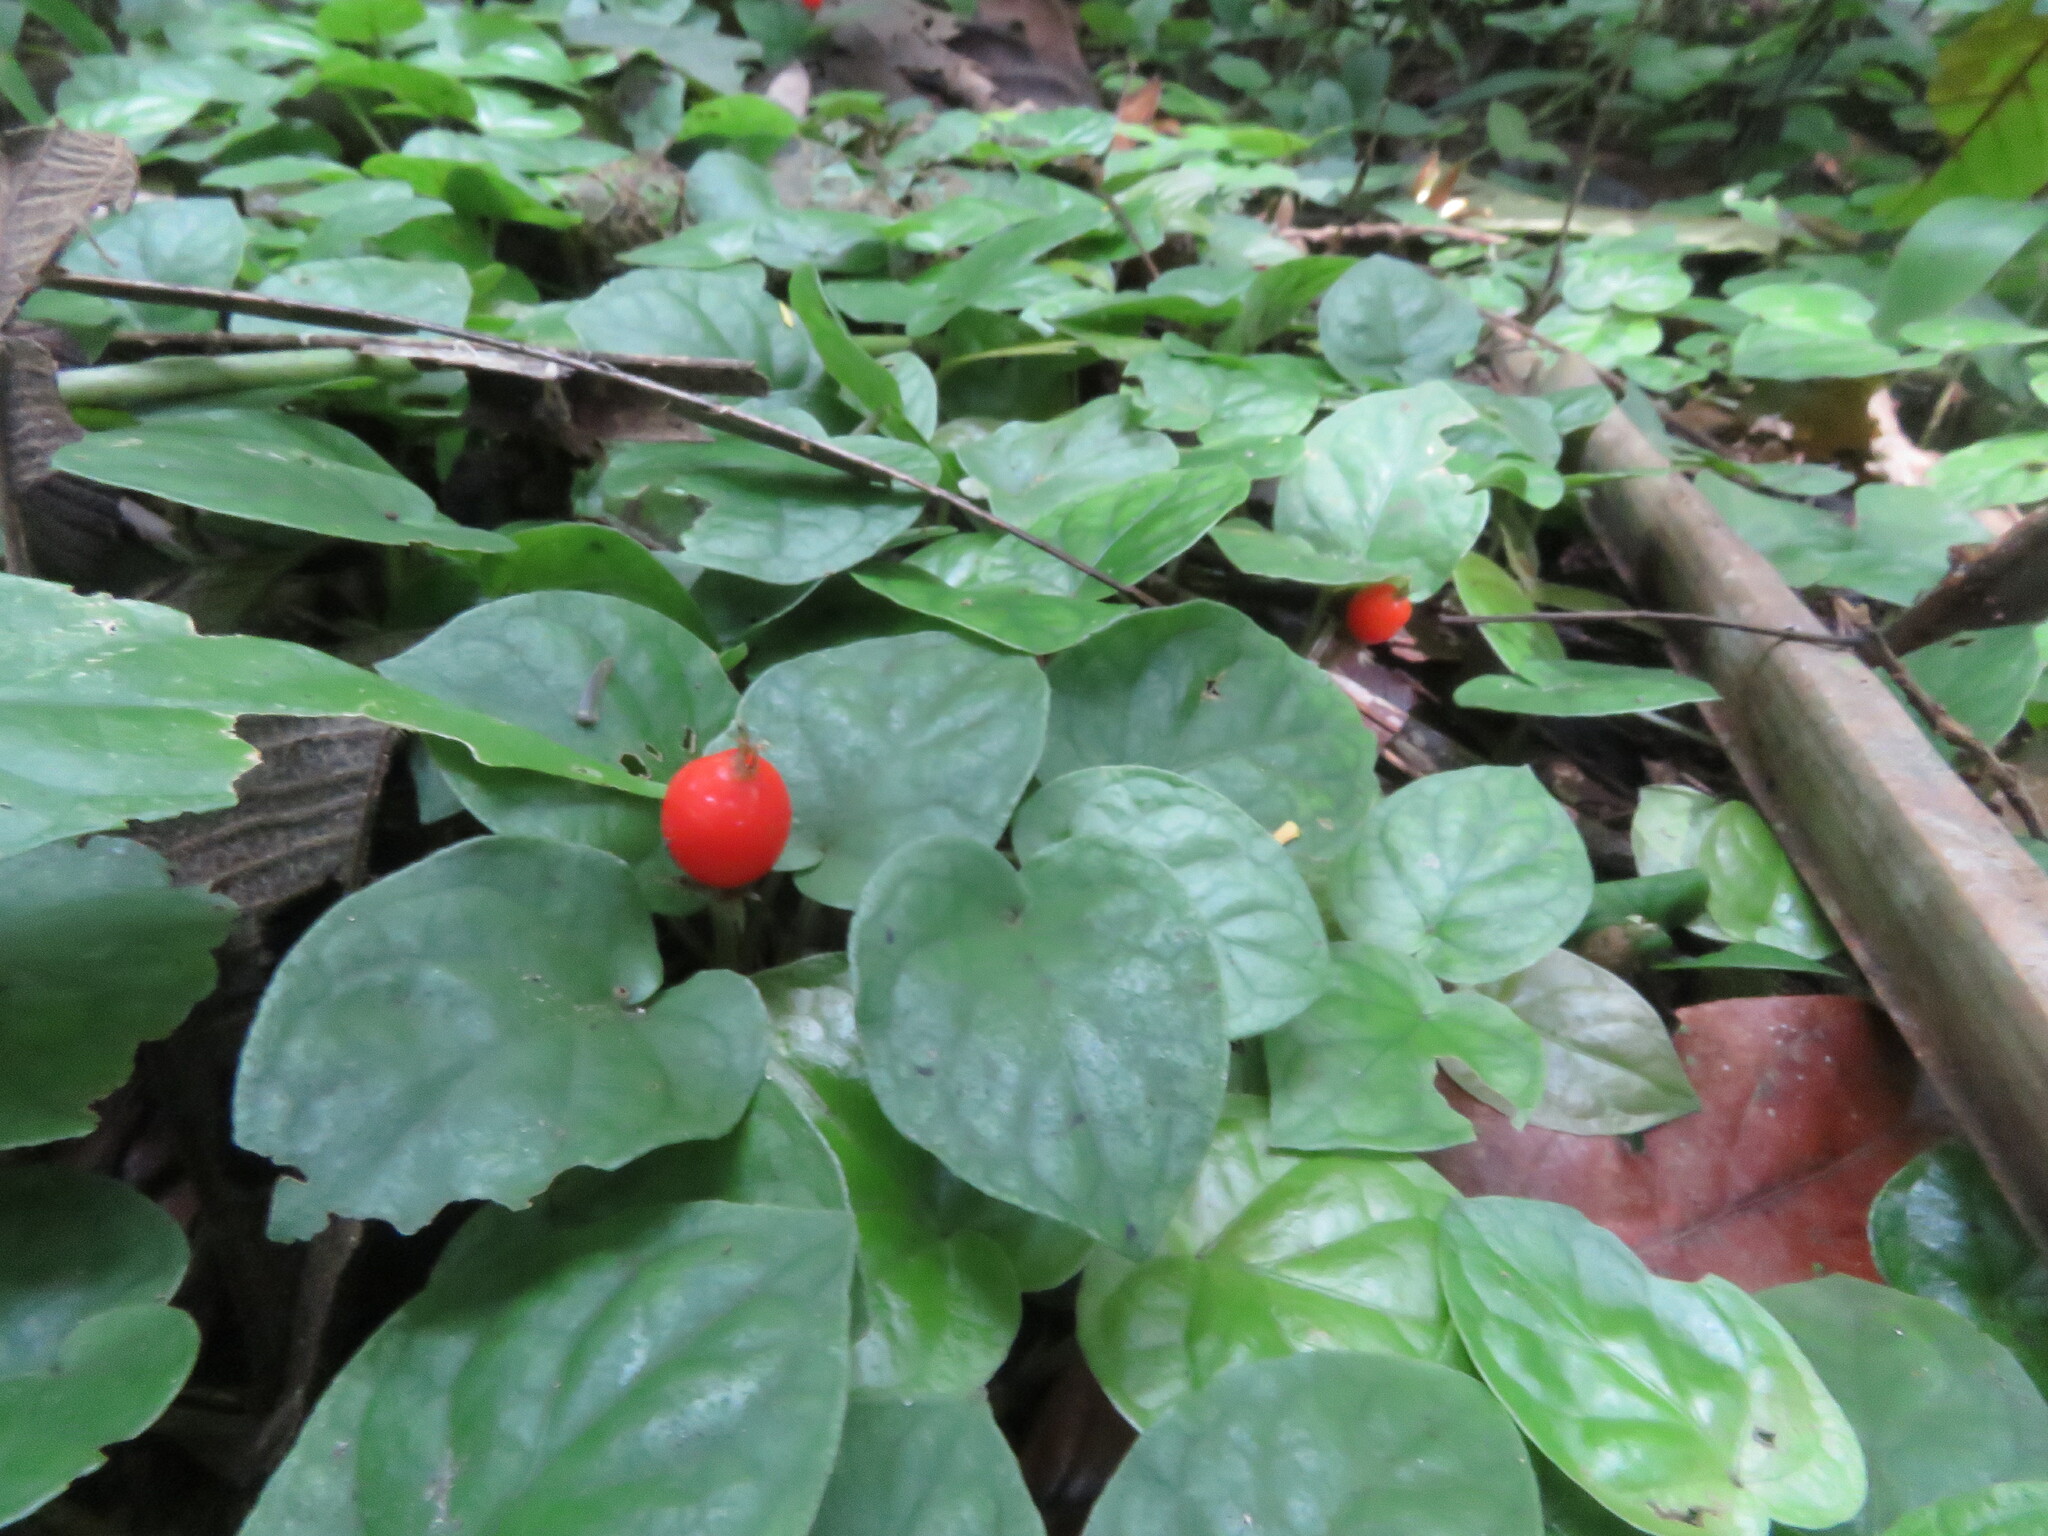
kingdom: Plantae
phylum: Tracheophyta
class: Magnoliopsida
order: Gentianales
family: Rubiaceae
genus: Geophila
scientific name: Geophila repens
